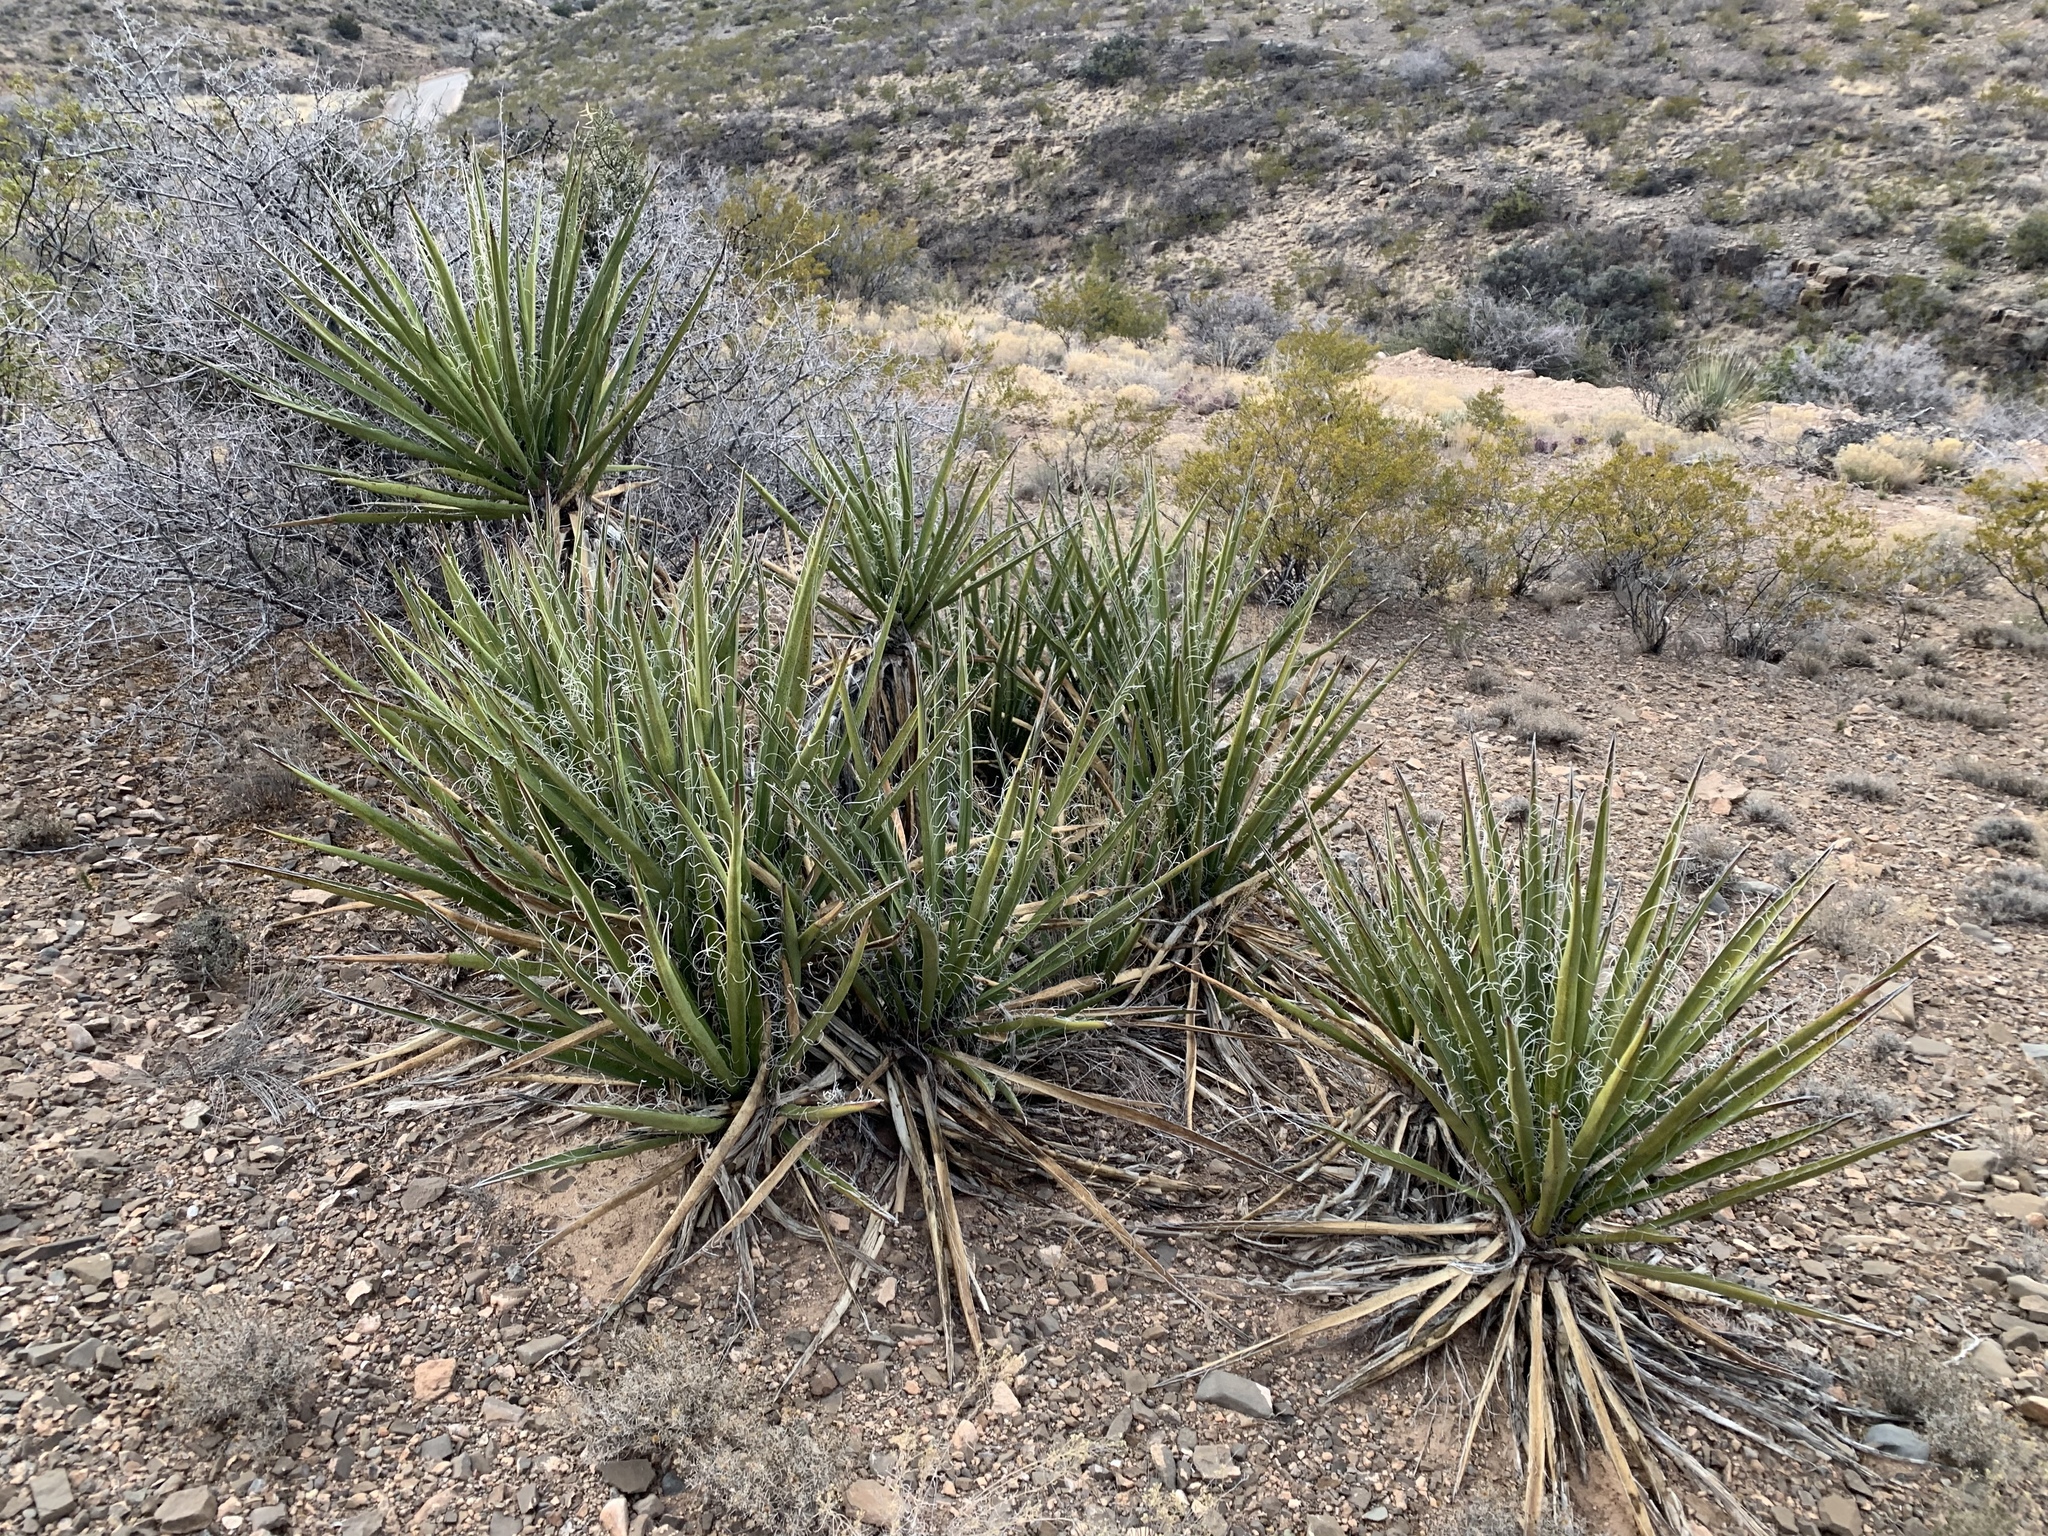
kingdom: Plantae
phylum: Tracheophyta
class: Liliopsida
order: Asparagales
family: Asparagaceae
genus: Yucca
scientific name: Yucca baccata
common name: Banana yucca
